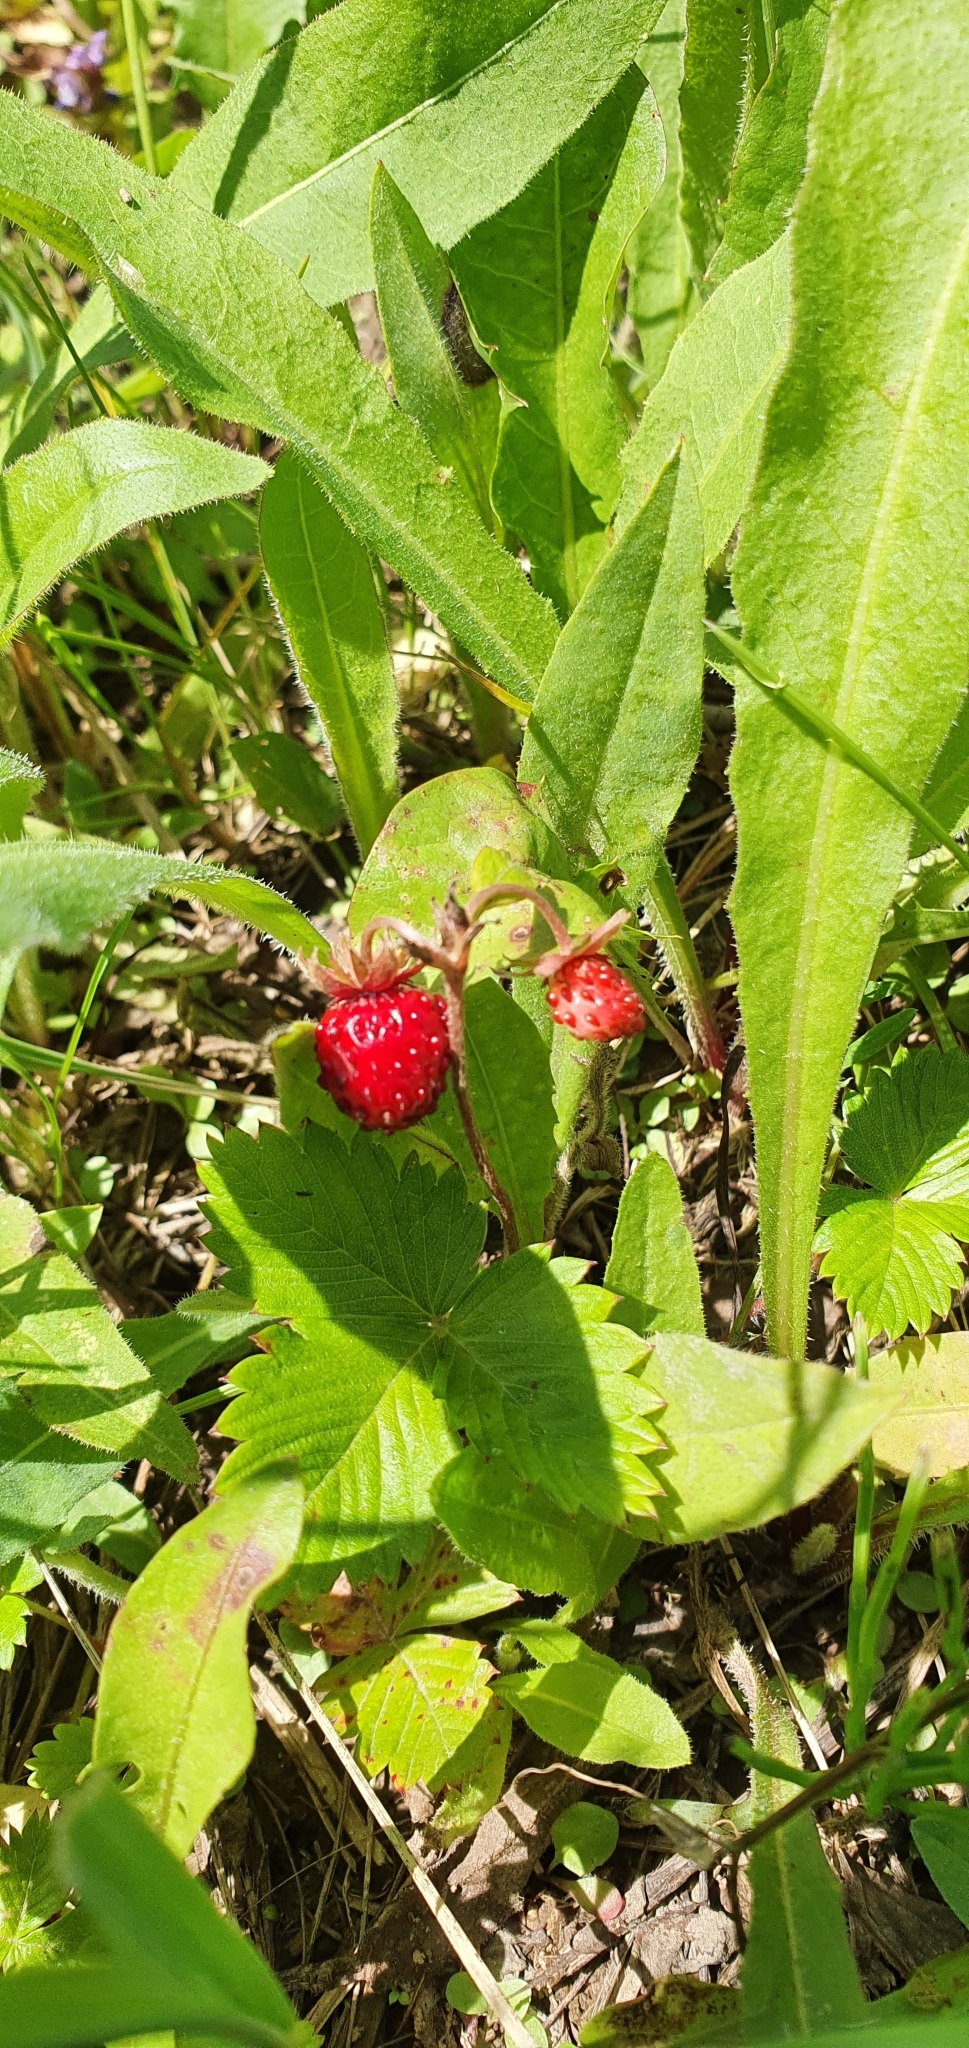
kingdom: Plantae
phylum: Tracheophyta
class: Magnoliopsida
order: Rosales
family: Rosaceae
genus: Fragaria
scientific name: Fragaria vesca
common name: Wild strawberry
